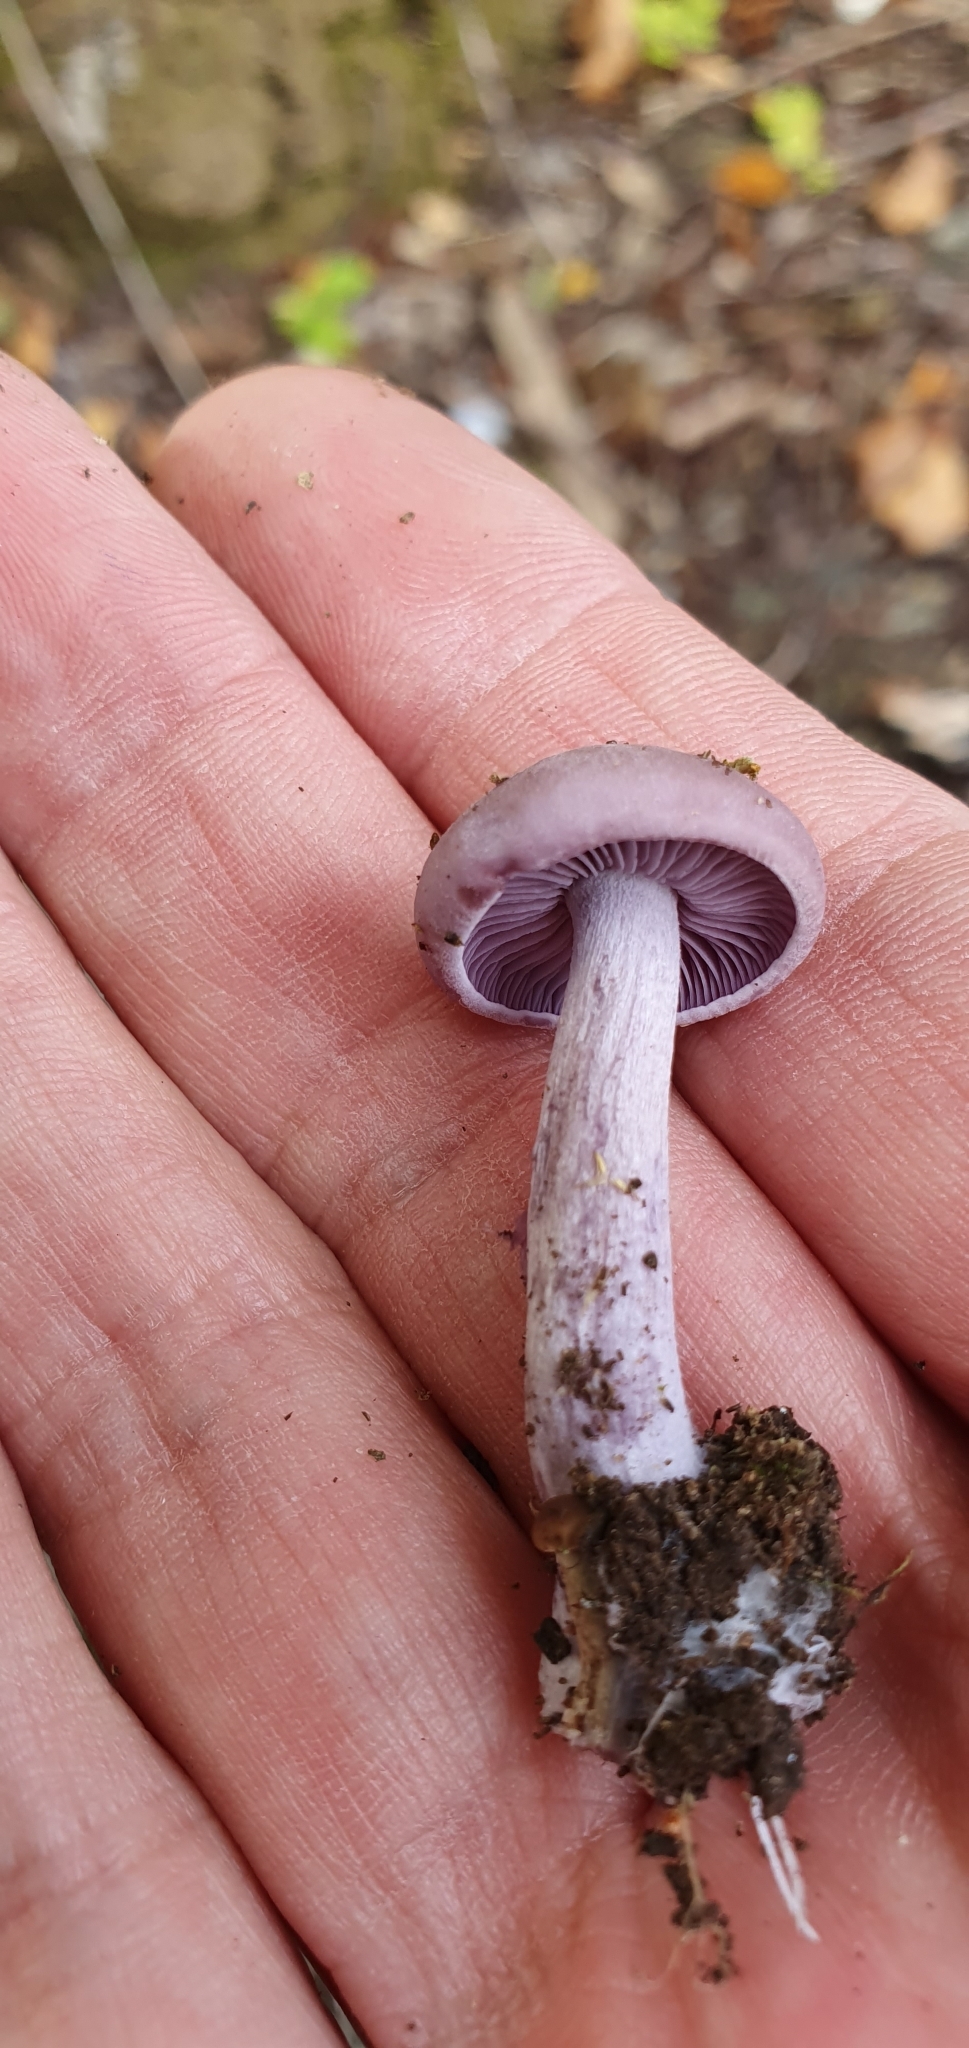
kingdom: Fungi
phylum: Basidiomycota
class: Agaricomycetes
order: Agaricales
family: Tricholomataceae
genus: Collybia
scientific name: Collybia
